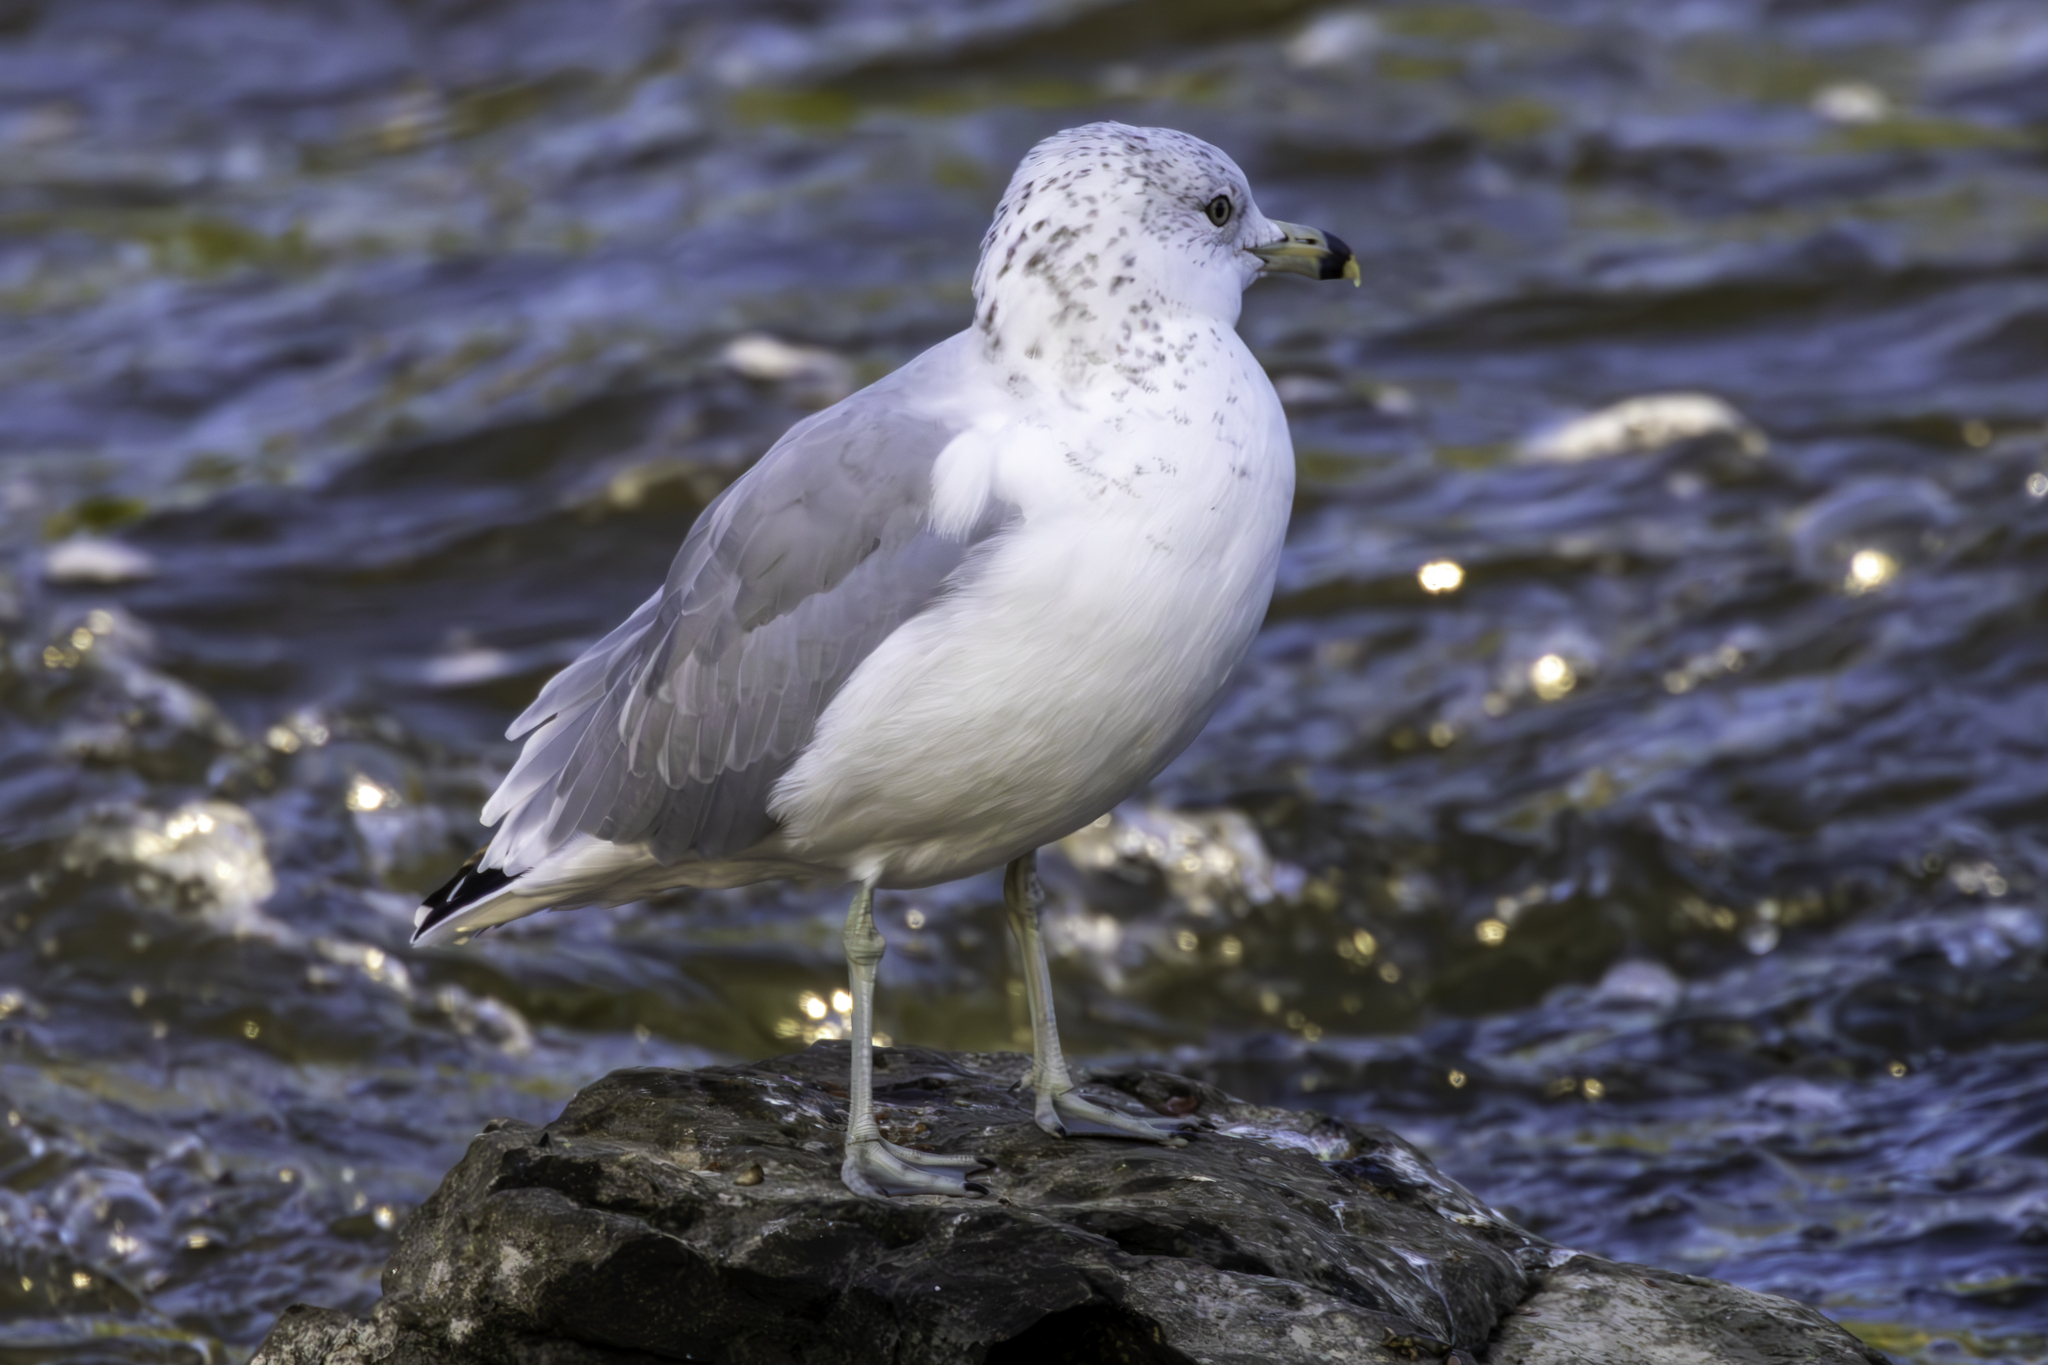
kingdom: Animalia
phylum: Chordata
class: Aves
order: Charadriiformes
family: Laridae
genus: Larus
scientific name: Larus delawarensis
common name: Ring-billed gull
